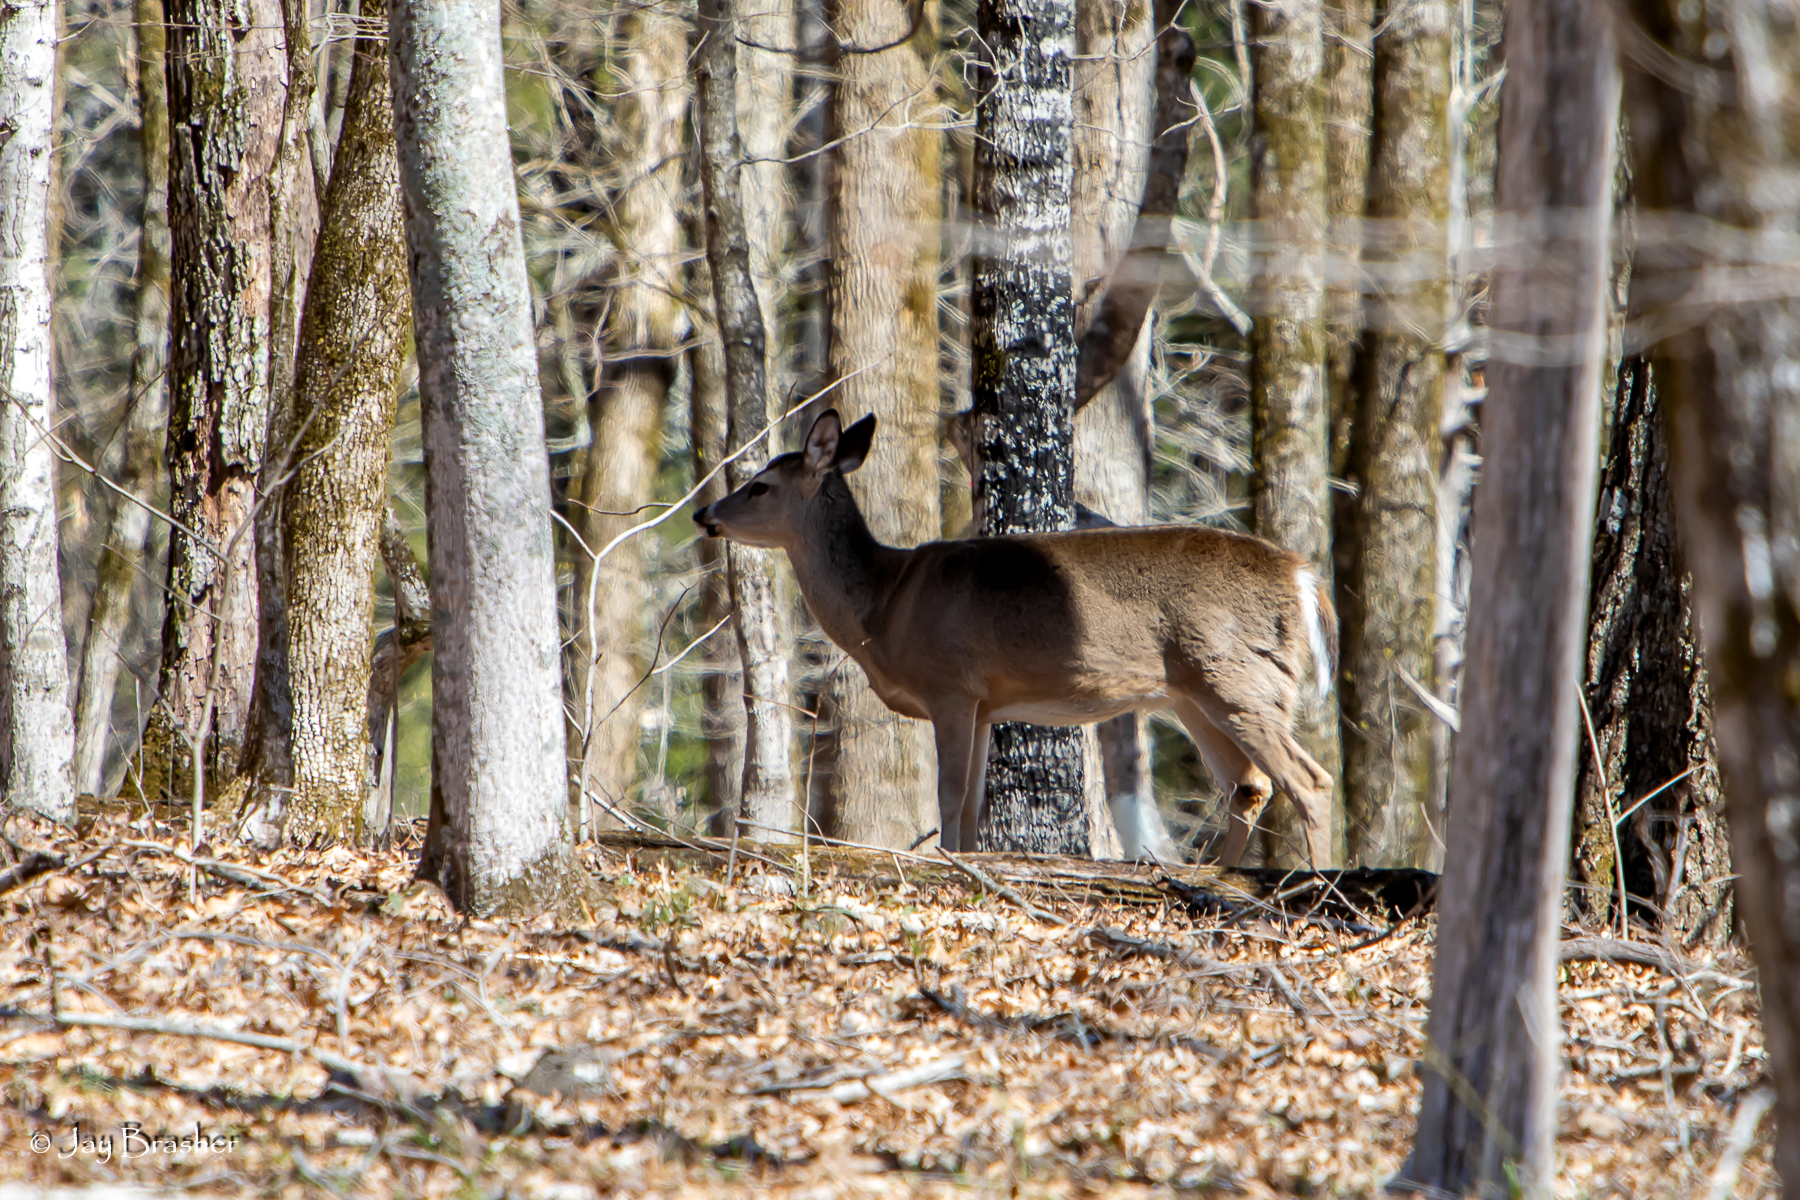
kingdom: Animalia
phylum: Chordata
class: Mammalia
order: Artiodactyla
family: Cervidae
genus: Odocoileus
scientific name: Odocoileus virginianus
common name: White-tailed deer
